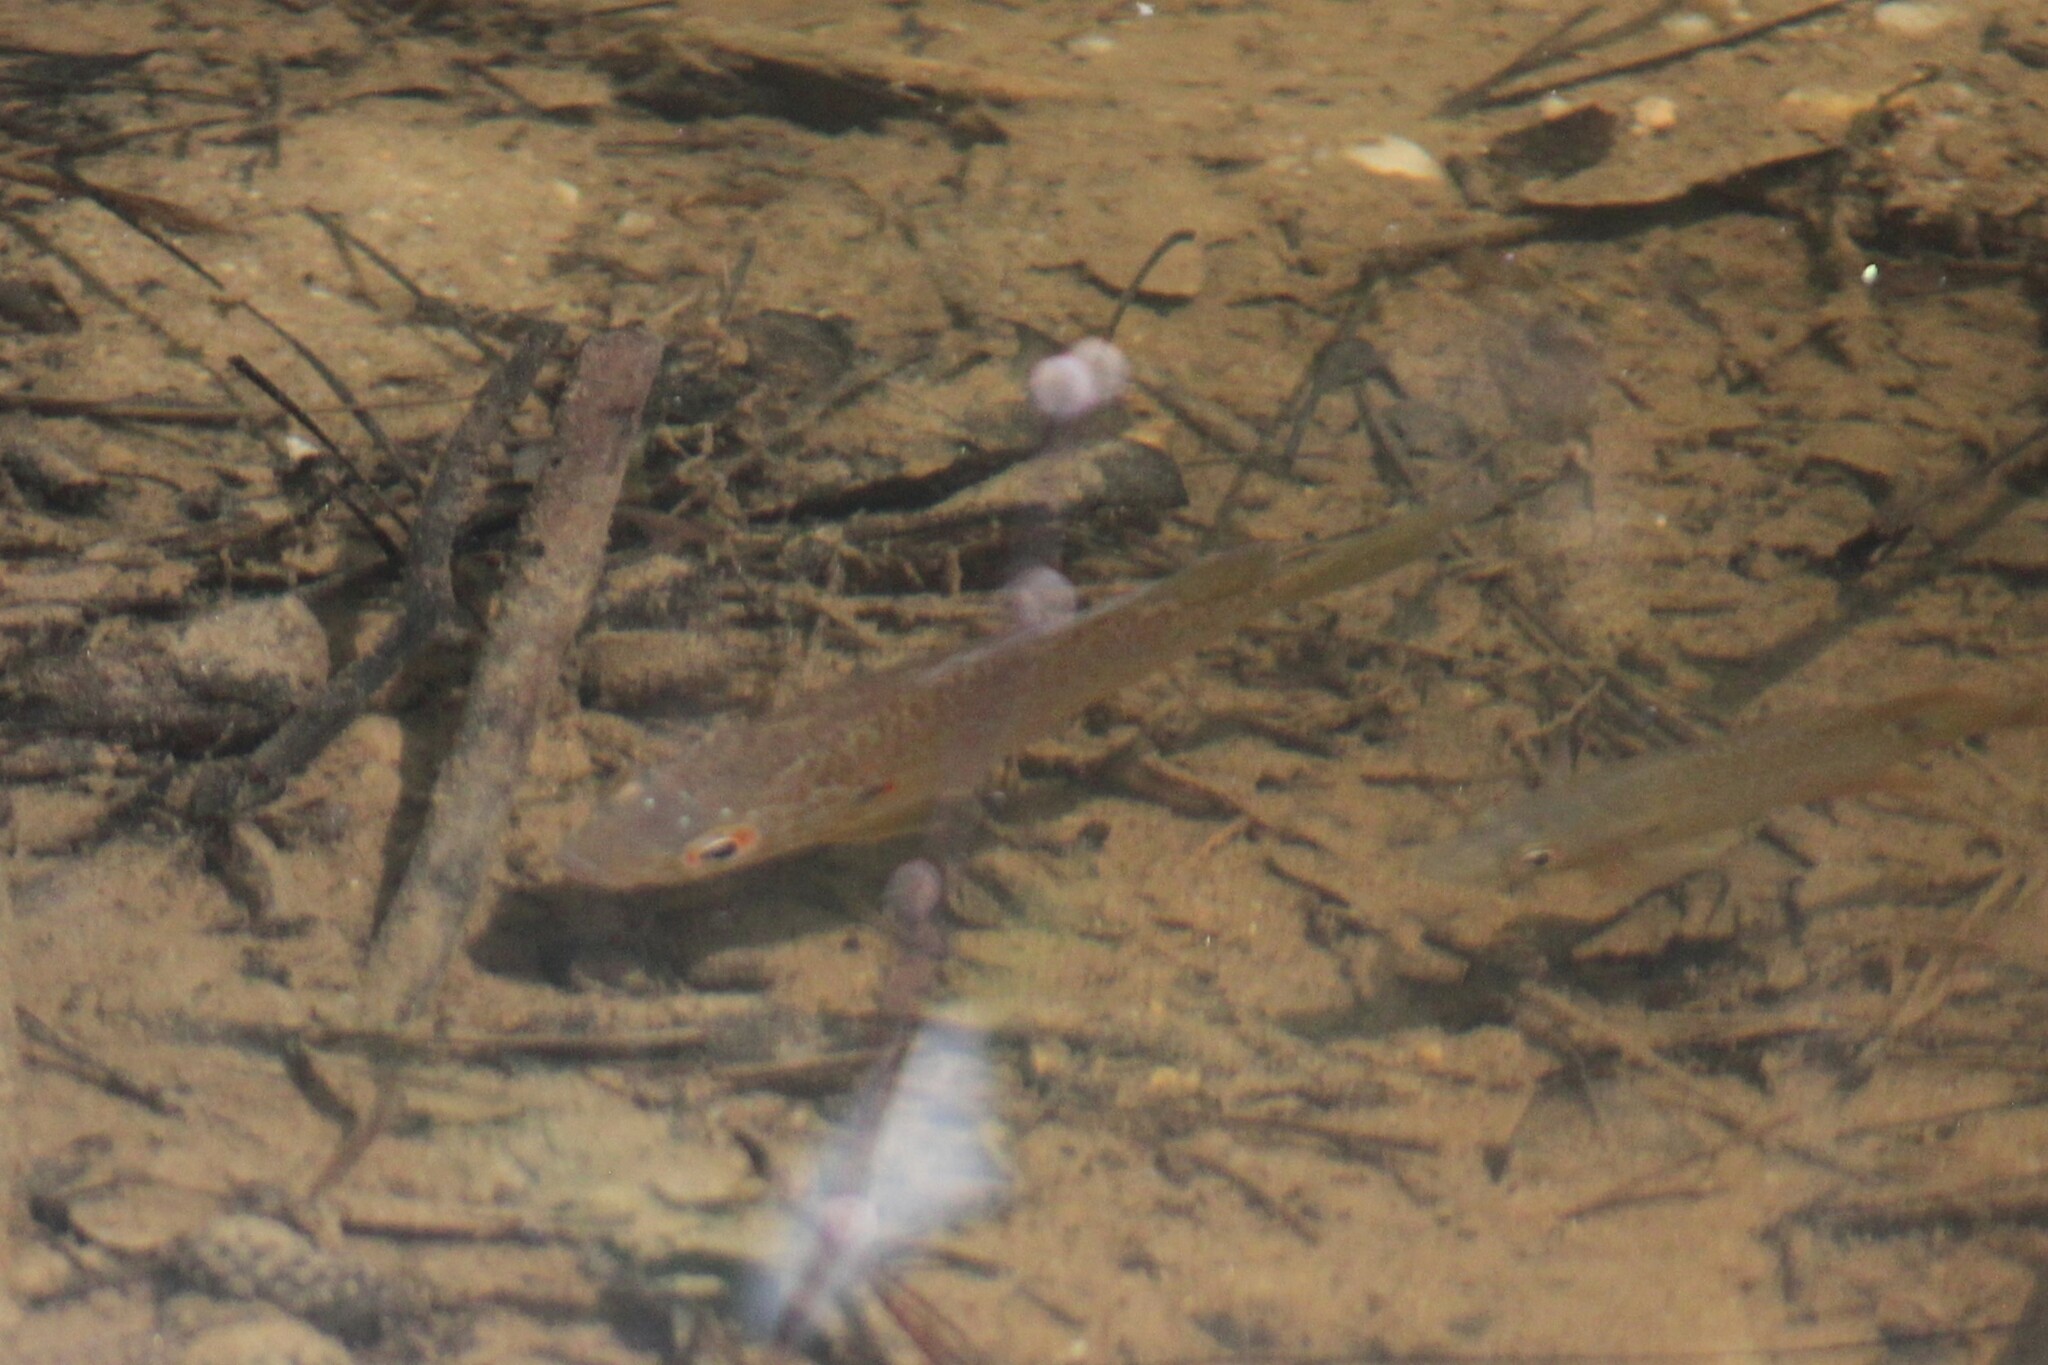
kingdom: Animalia
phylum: Chordata
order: Perciformes
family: Centrarchidae
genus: Lepomis
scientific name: Lepomis gibbosus
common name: Pumpkinseed
